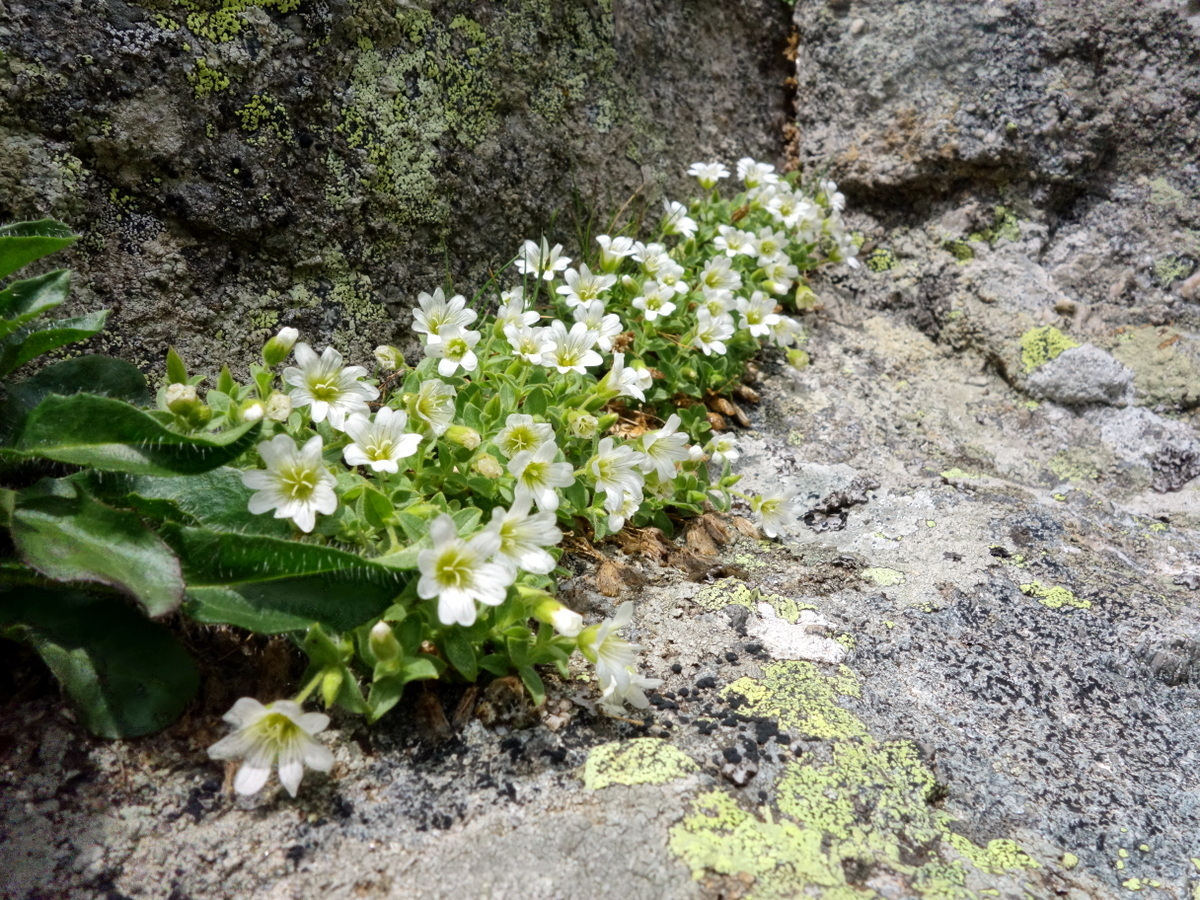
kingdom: Plantae
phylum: Tracheophyta
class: Magnoliopsida
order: Caryophyllales
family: Caryophyllaceae
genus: Cerastium
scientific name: Cerastium uniflorum
